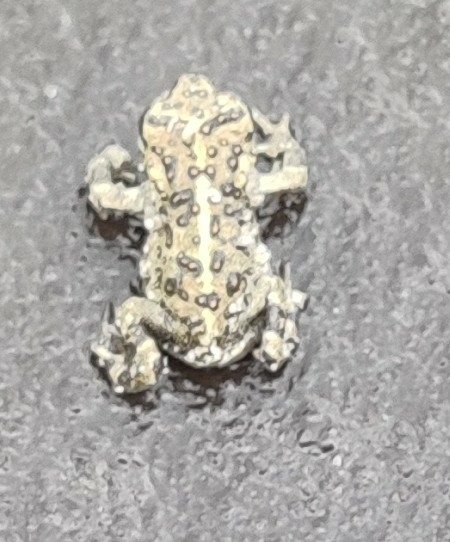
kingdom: Animalia
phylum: Chordata
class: Amphibia
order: Anura
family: Bufonidae
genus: Epidalea
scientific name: Epidalea calamita
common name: Natterjack toad
